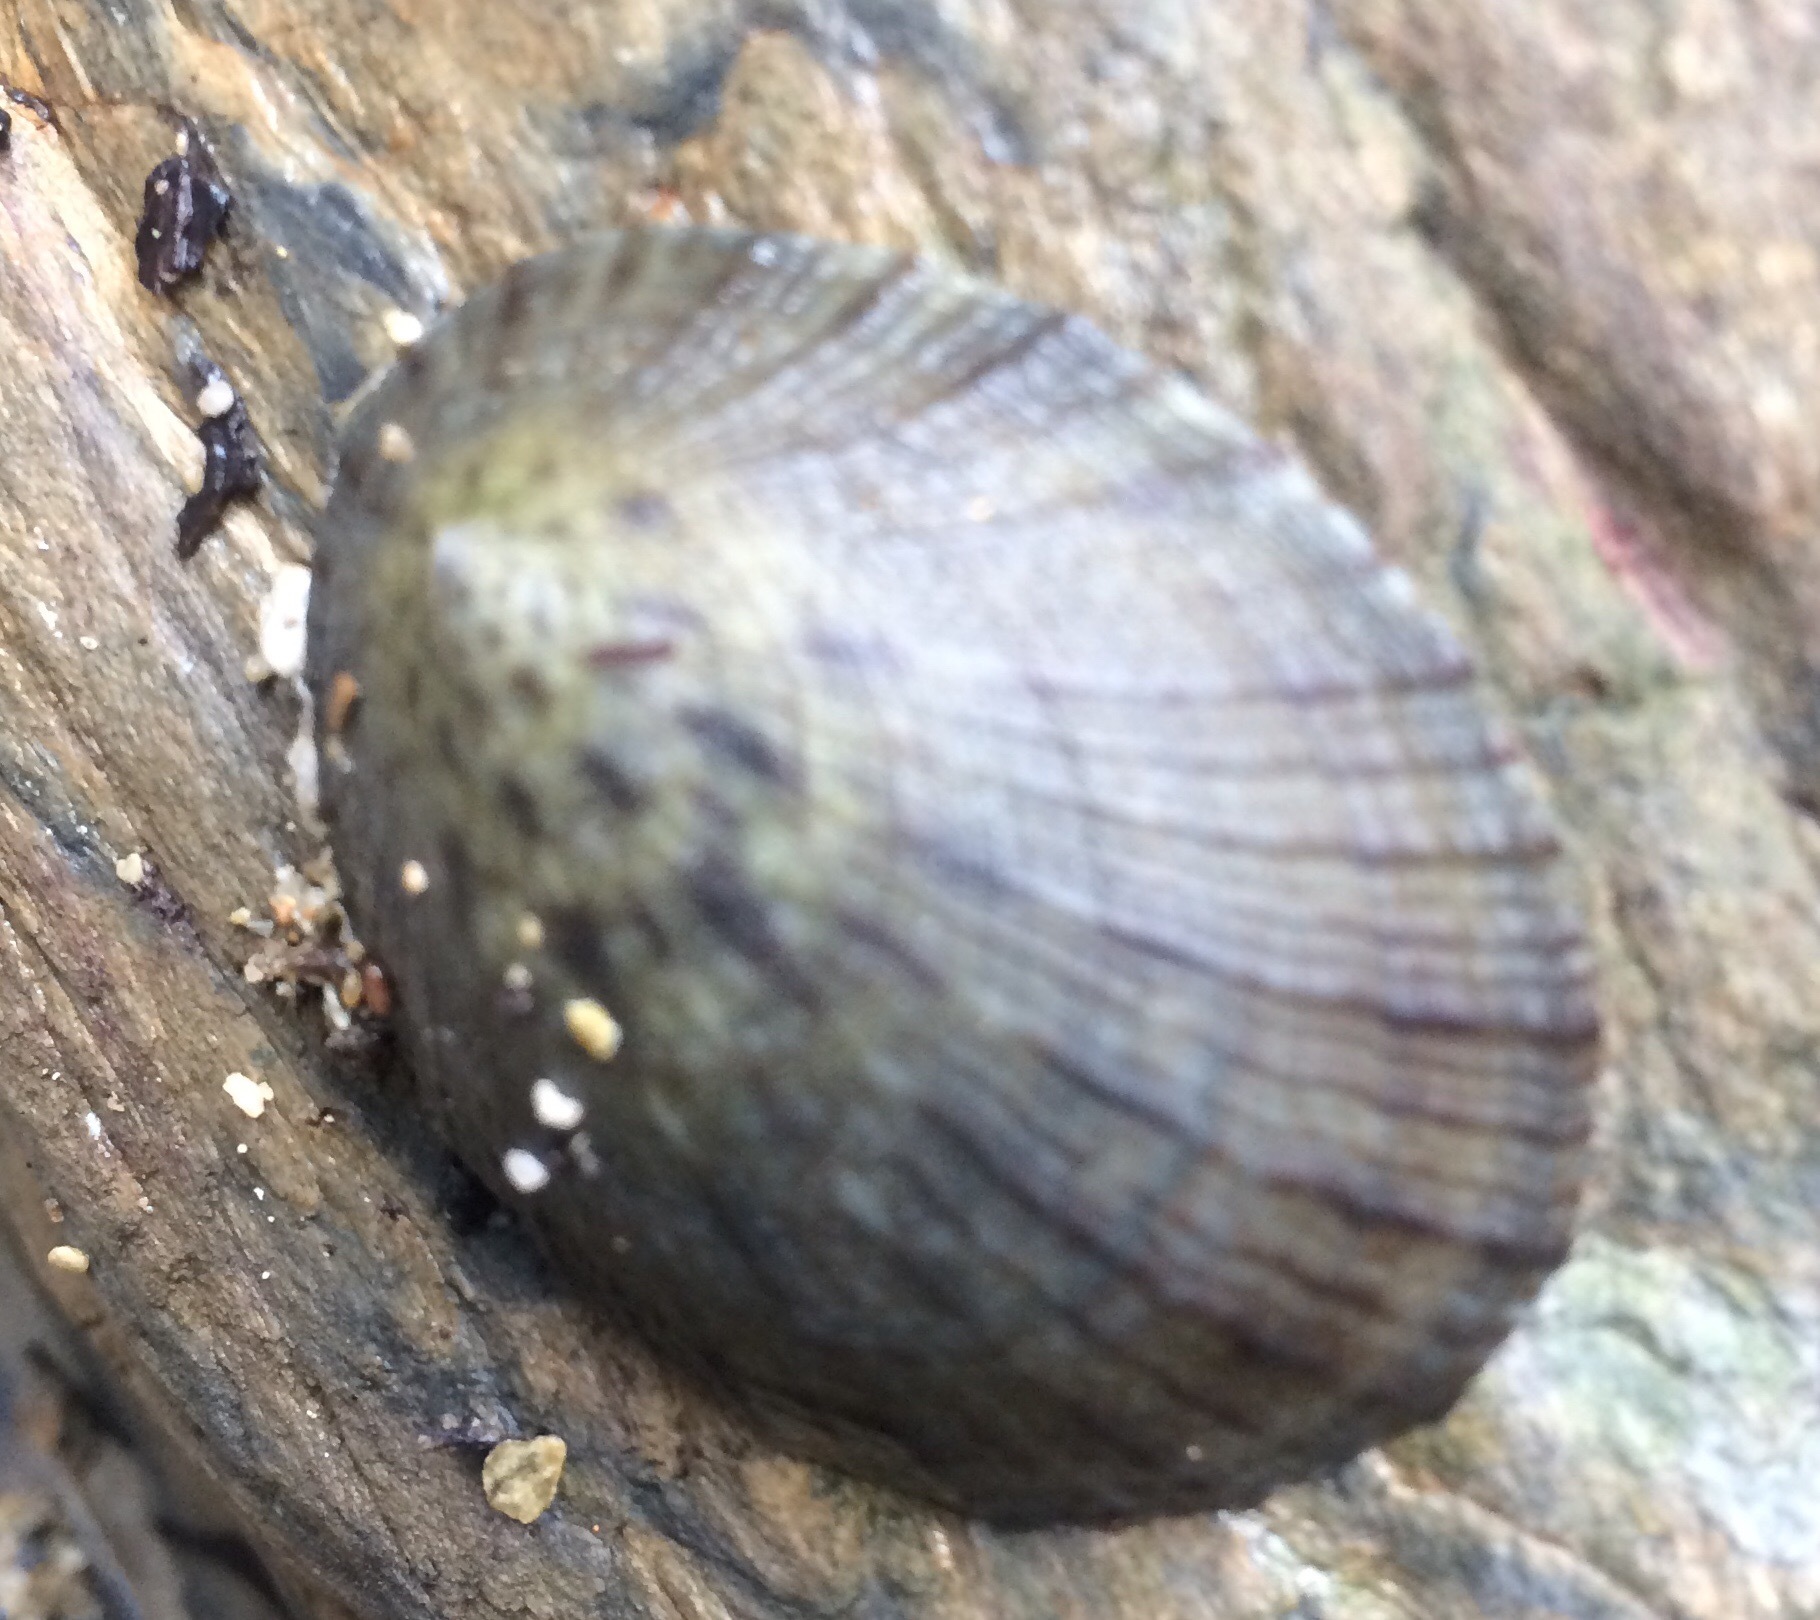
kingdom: Animalia
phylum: Mollusca
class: Gastropoda
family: Nacellidae
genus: Cellana
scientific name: Cellana radians
